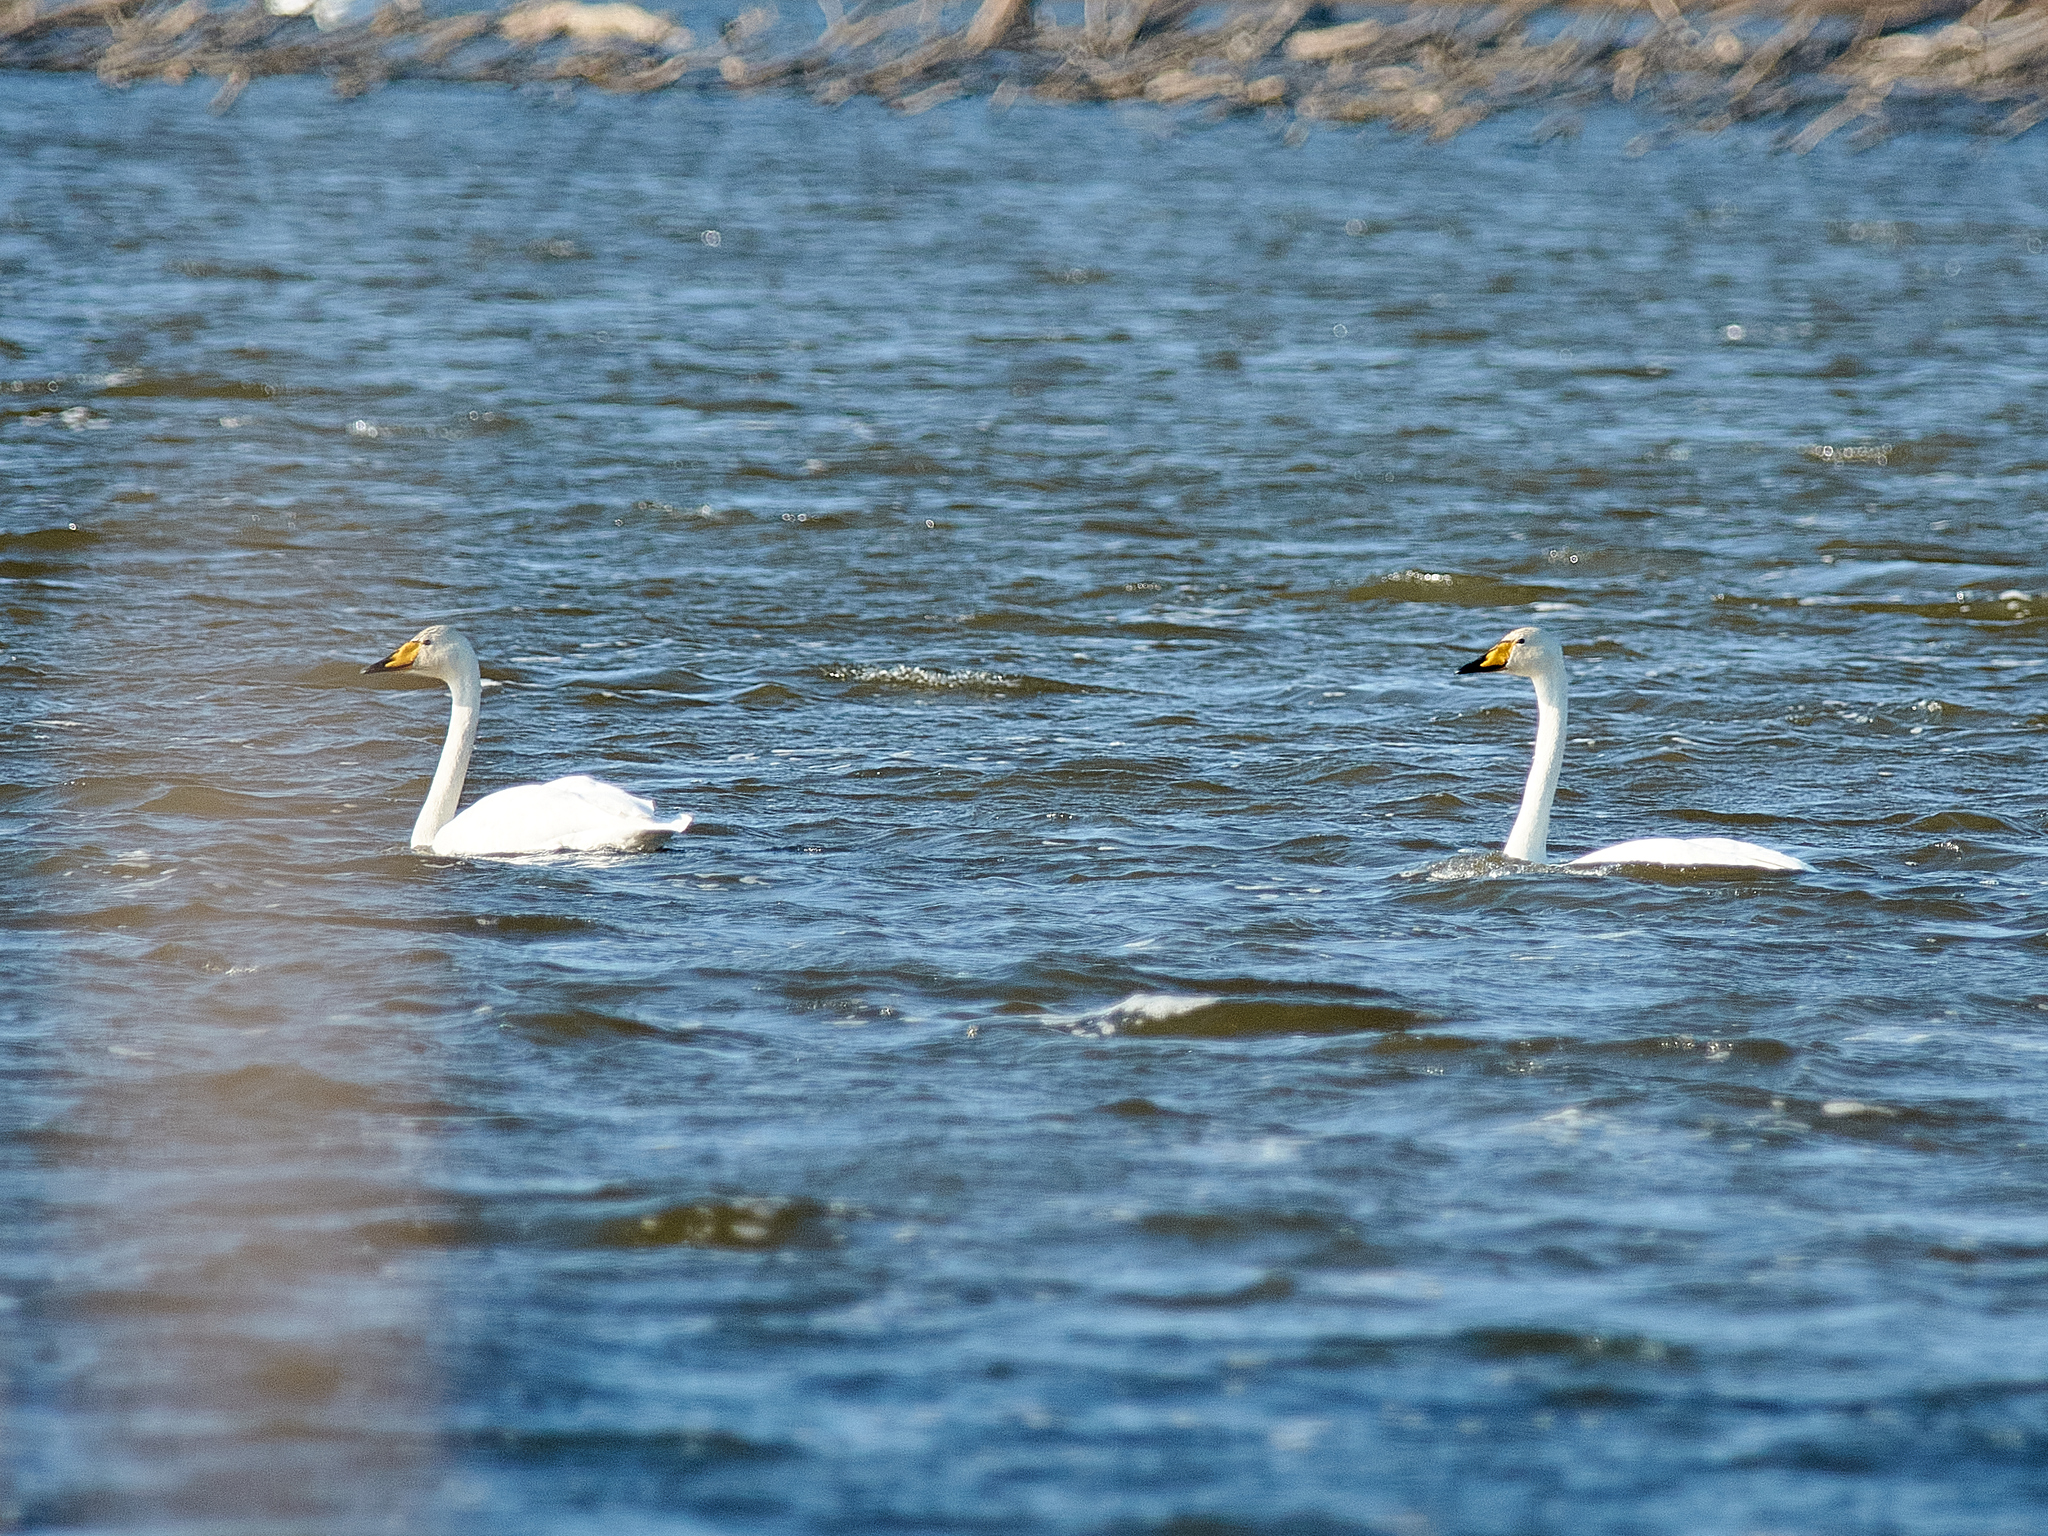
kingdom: Animalia
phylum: Chordata
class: Aves
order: Anseriformes
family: Anatidae
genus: Cygnus
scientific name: Cygnus cygnus
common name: Whooper swan
